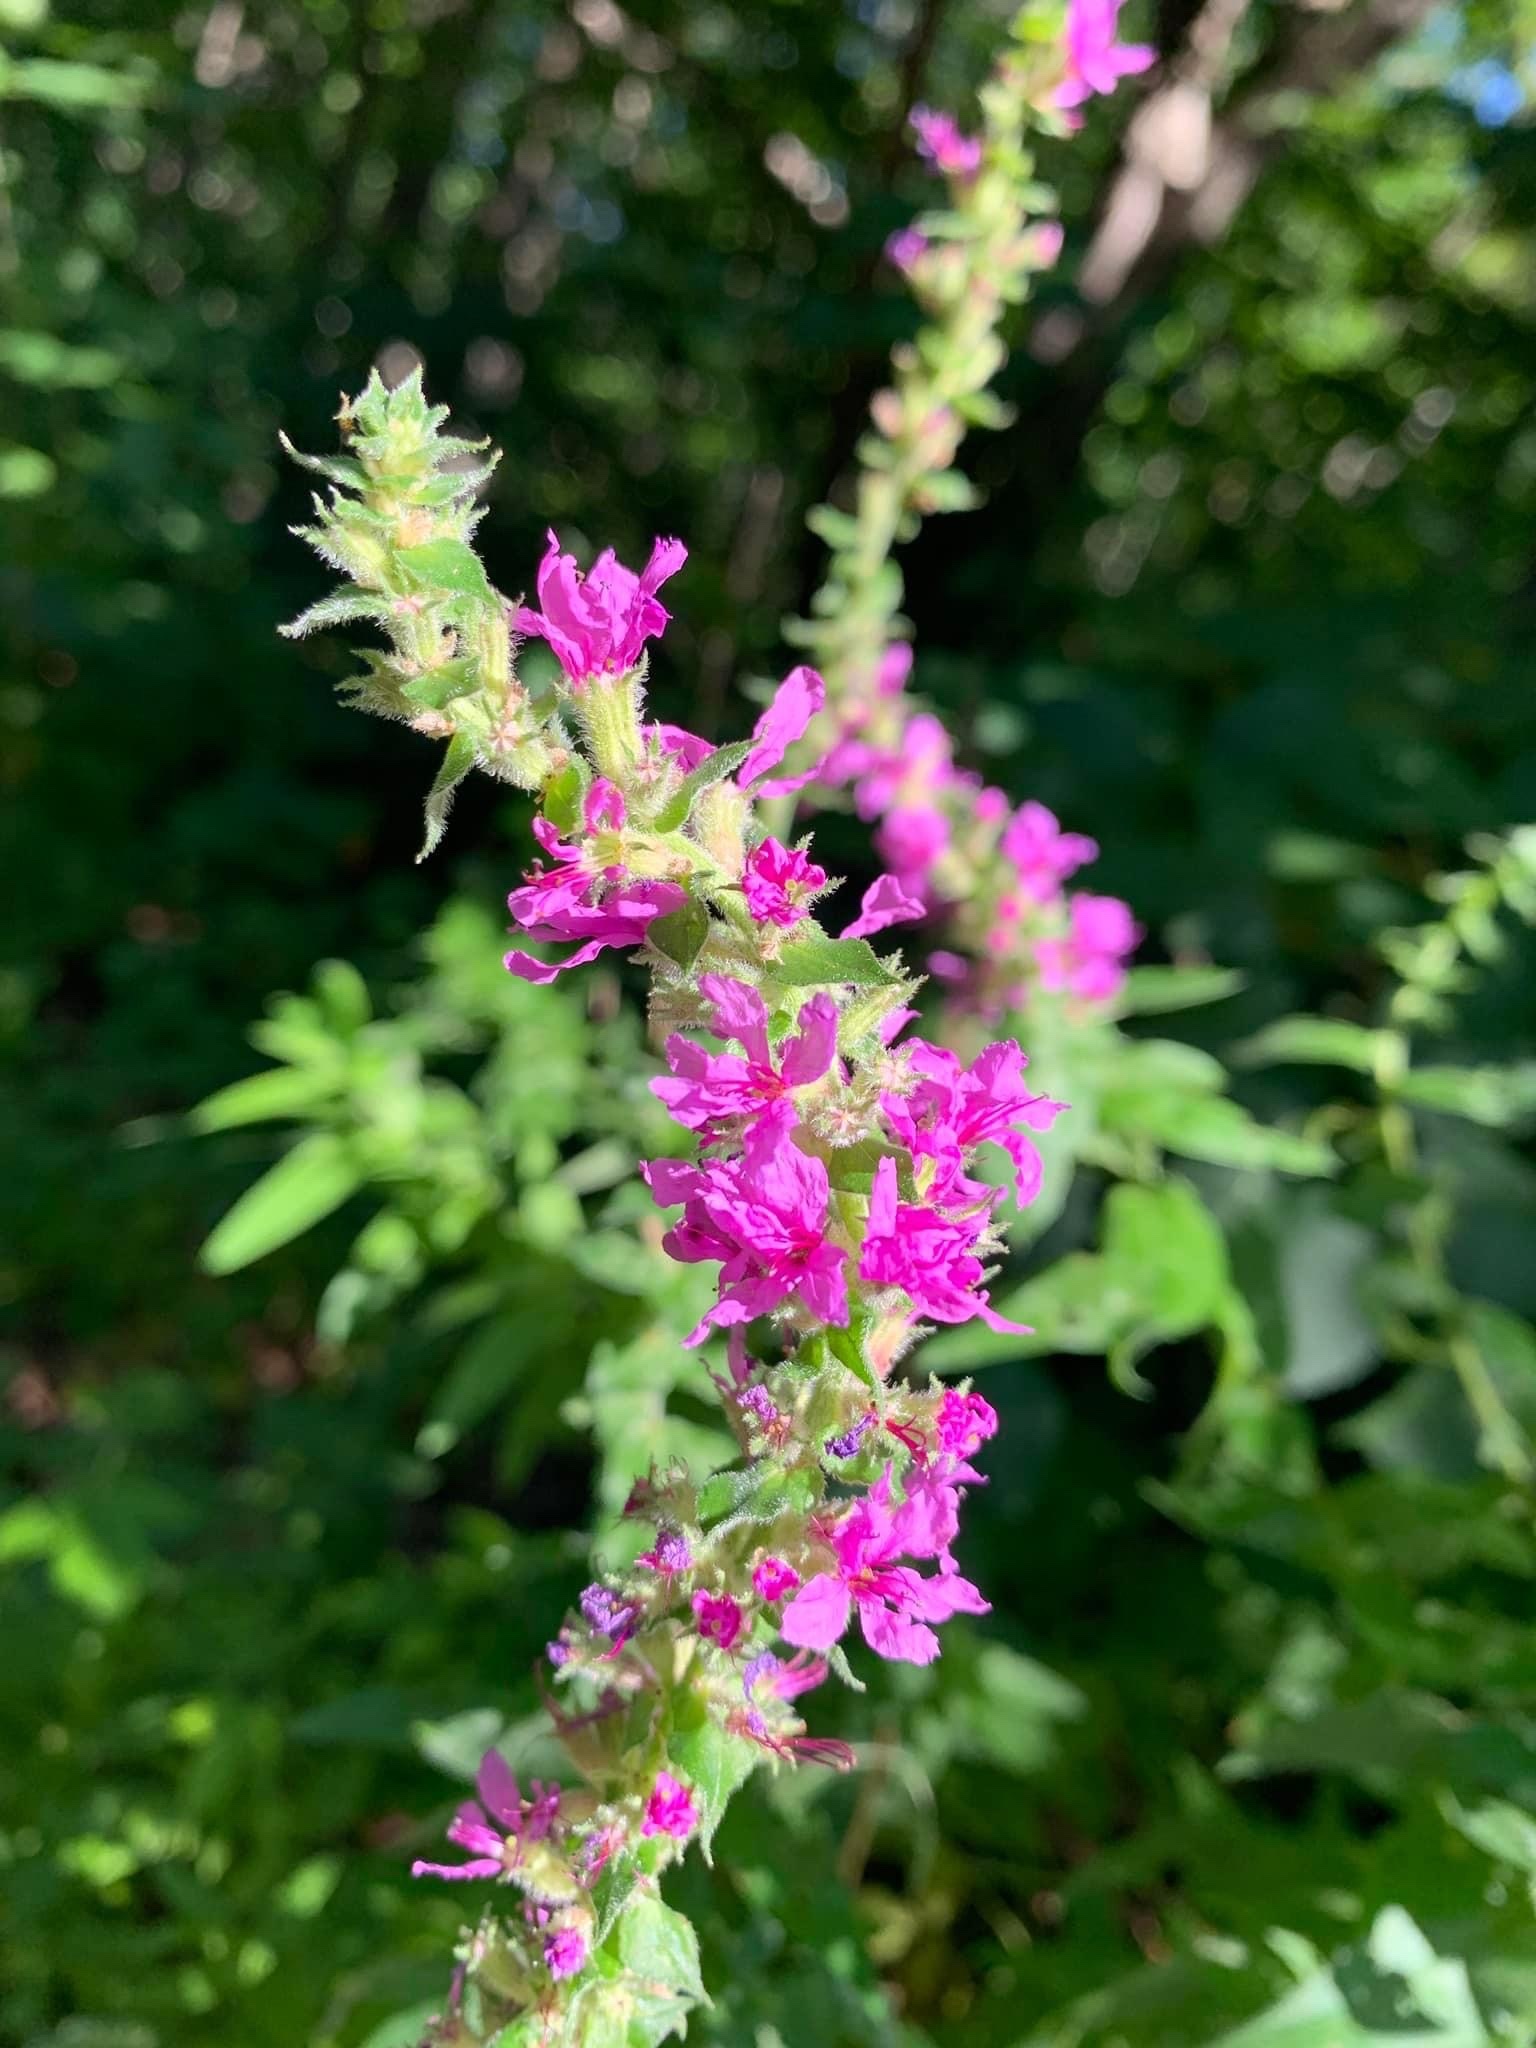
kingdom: Plantae
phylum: Tracheophyta
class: Magnoliopsida
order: Myrtales
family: Lythraceae
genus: Lythrum
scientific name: Lythrum salicaria
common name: Purple loosestrife
